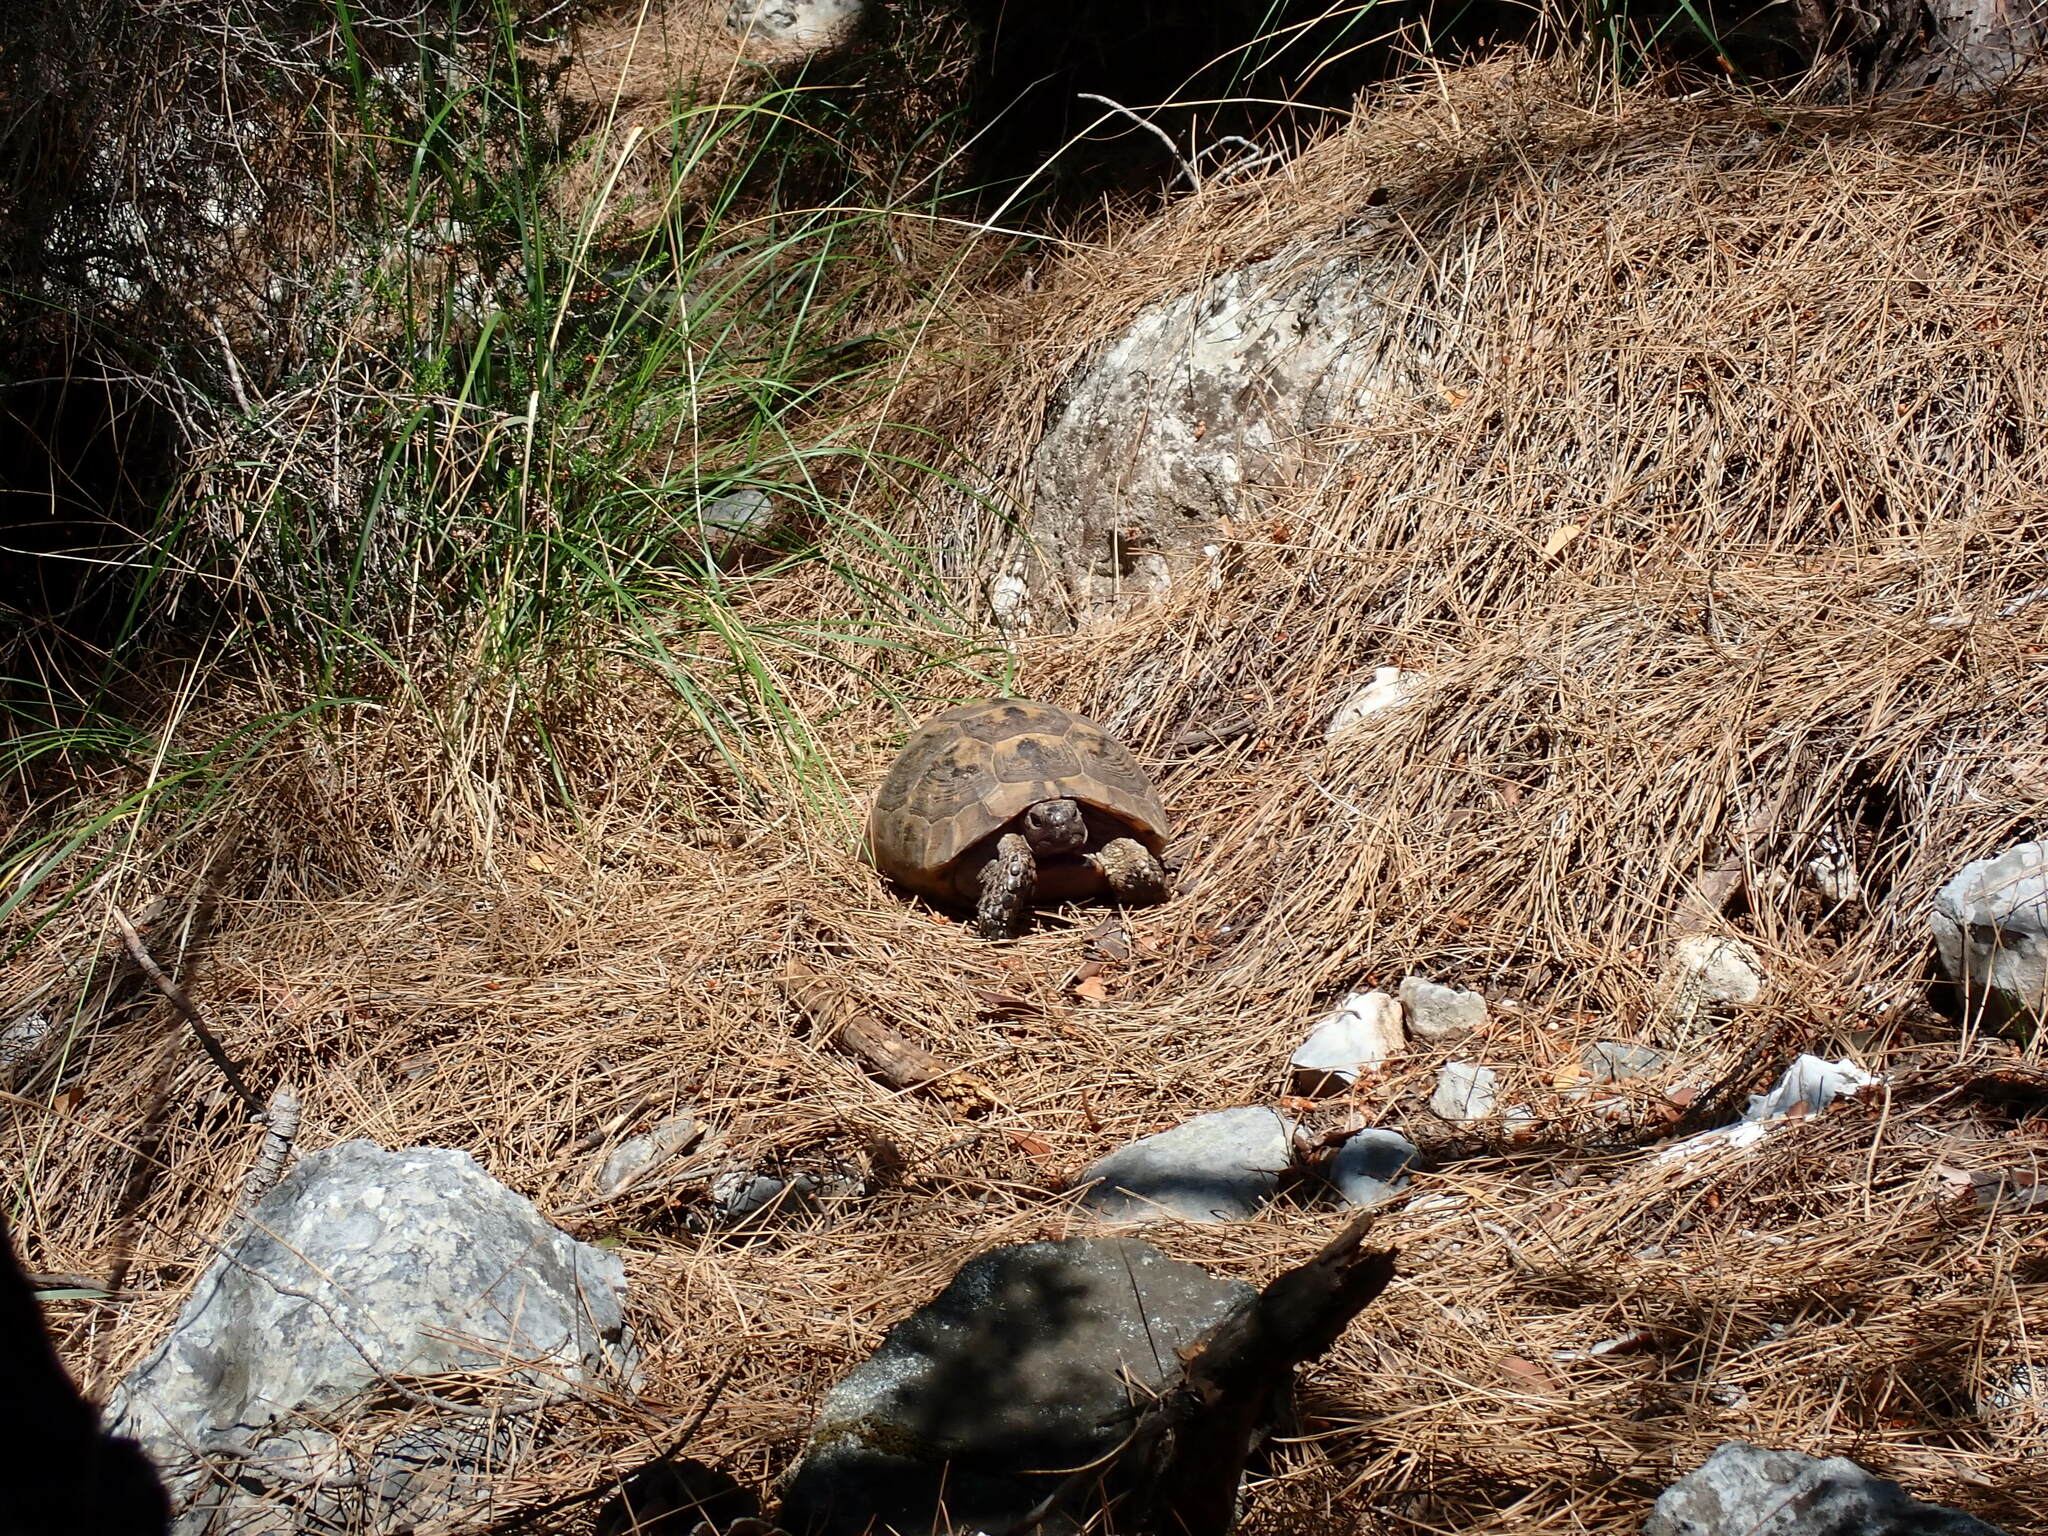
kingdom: Animalia
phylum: Chordata
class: Testudines
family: Testudinidae
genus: Testudo
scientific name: Testudo graeca
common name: Common tortoise
